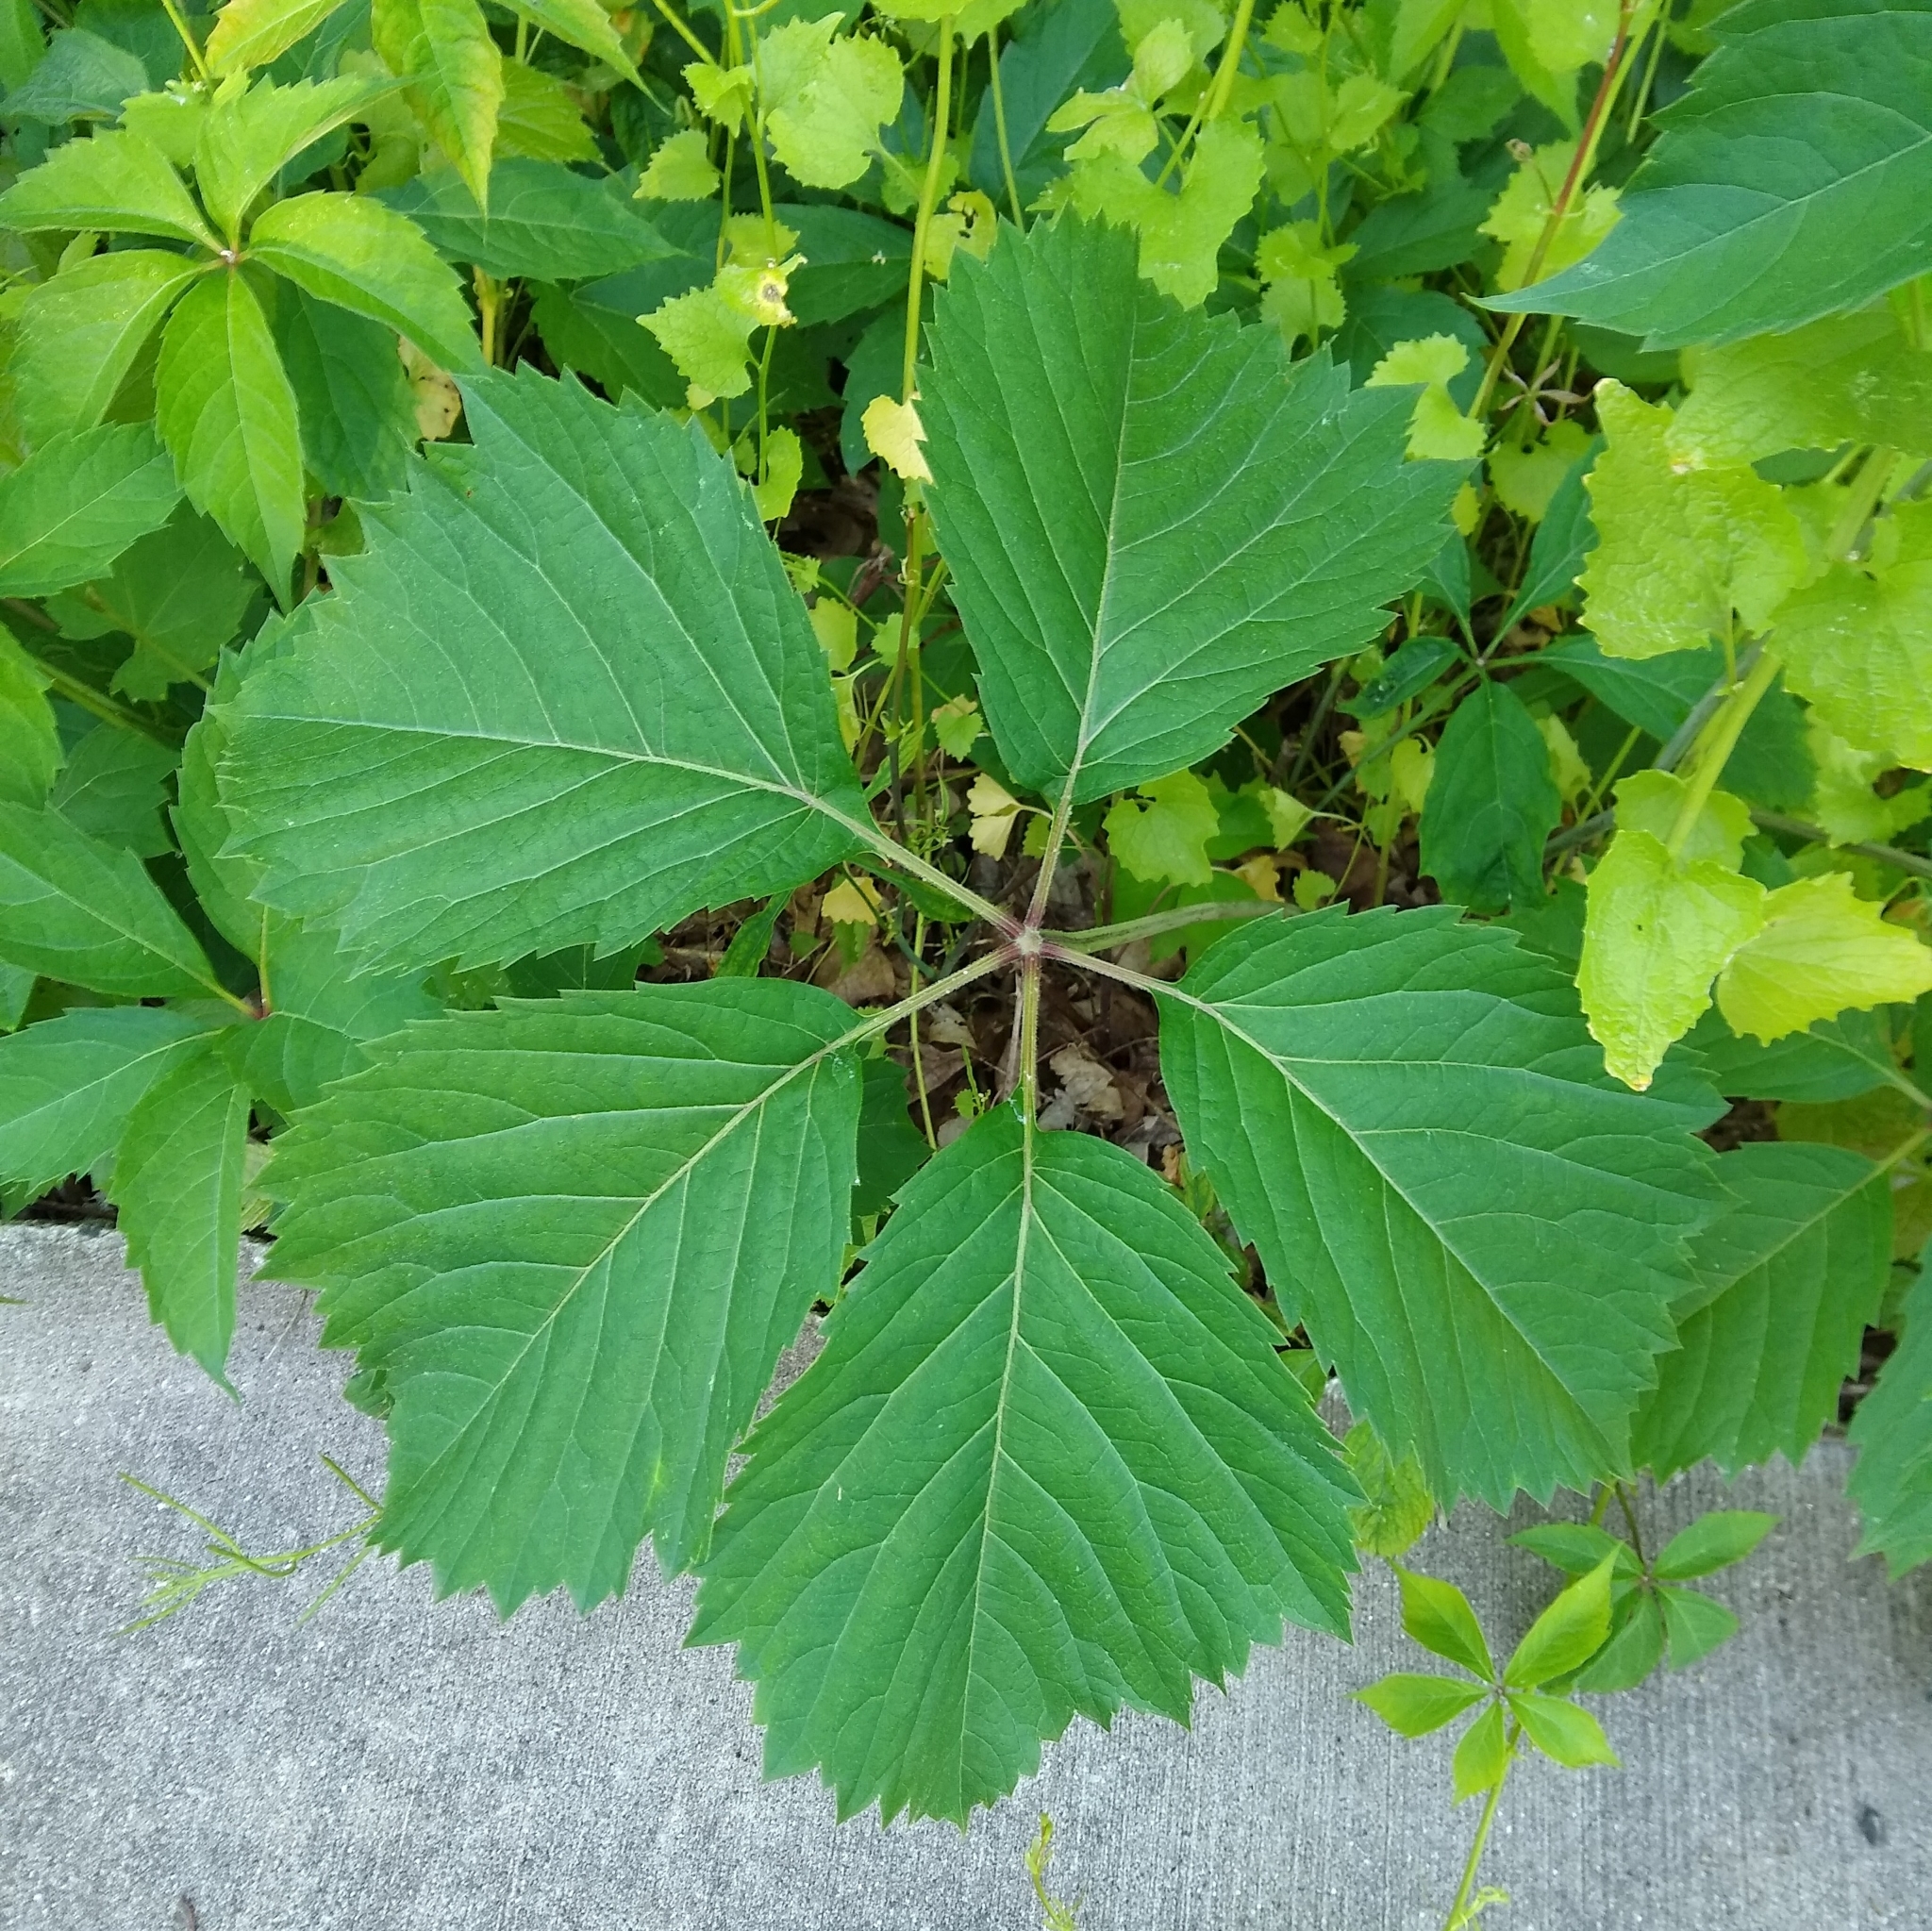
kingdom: Plantae
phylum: Tracheophyta
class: Magnoliopsida
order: Brassicales
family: Brassicaceae
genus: Alliaria
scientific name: Alliaria petiolata
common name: Garlic mustard
